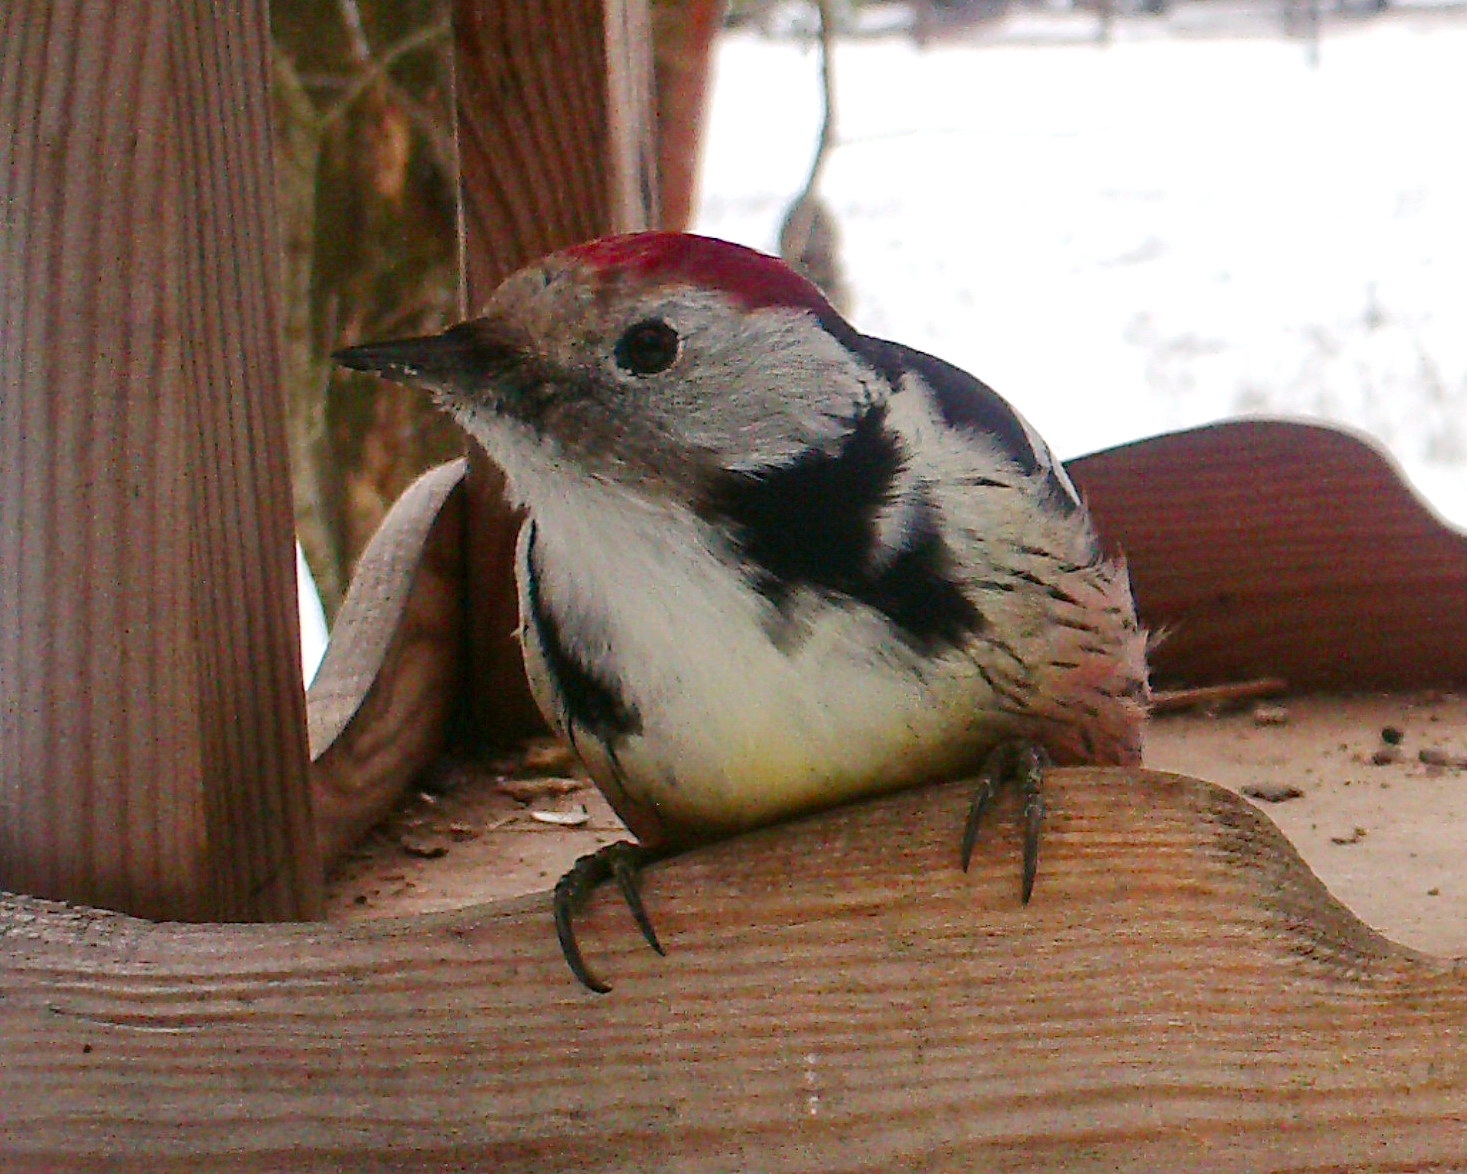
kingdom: Animalia
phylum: Chordata
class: Aves
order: Piciformes
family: Picidae
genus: Dendrocoptes
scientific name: Dendrocoptes medius
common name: Middle spotted woodpecker
